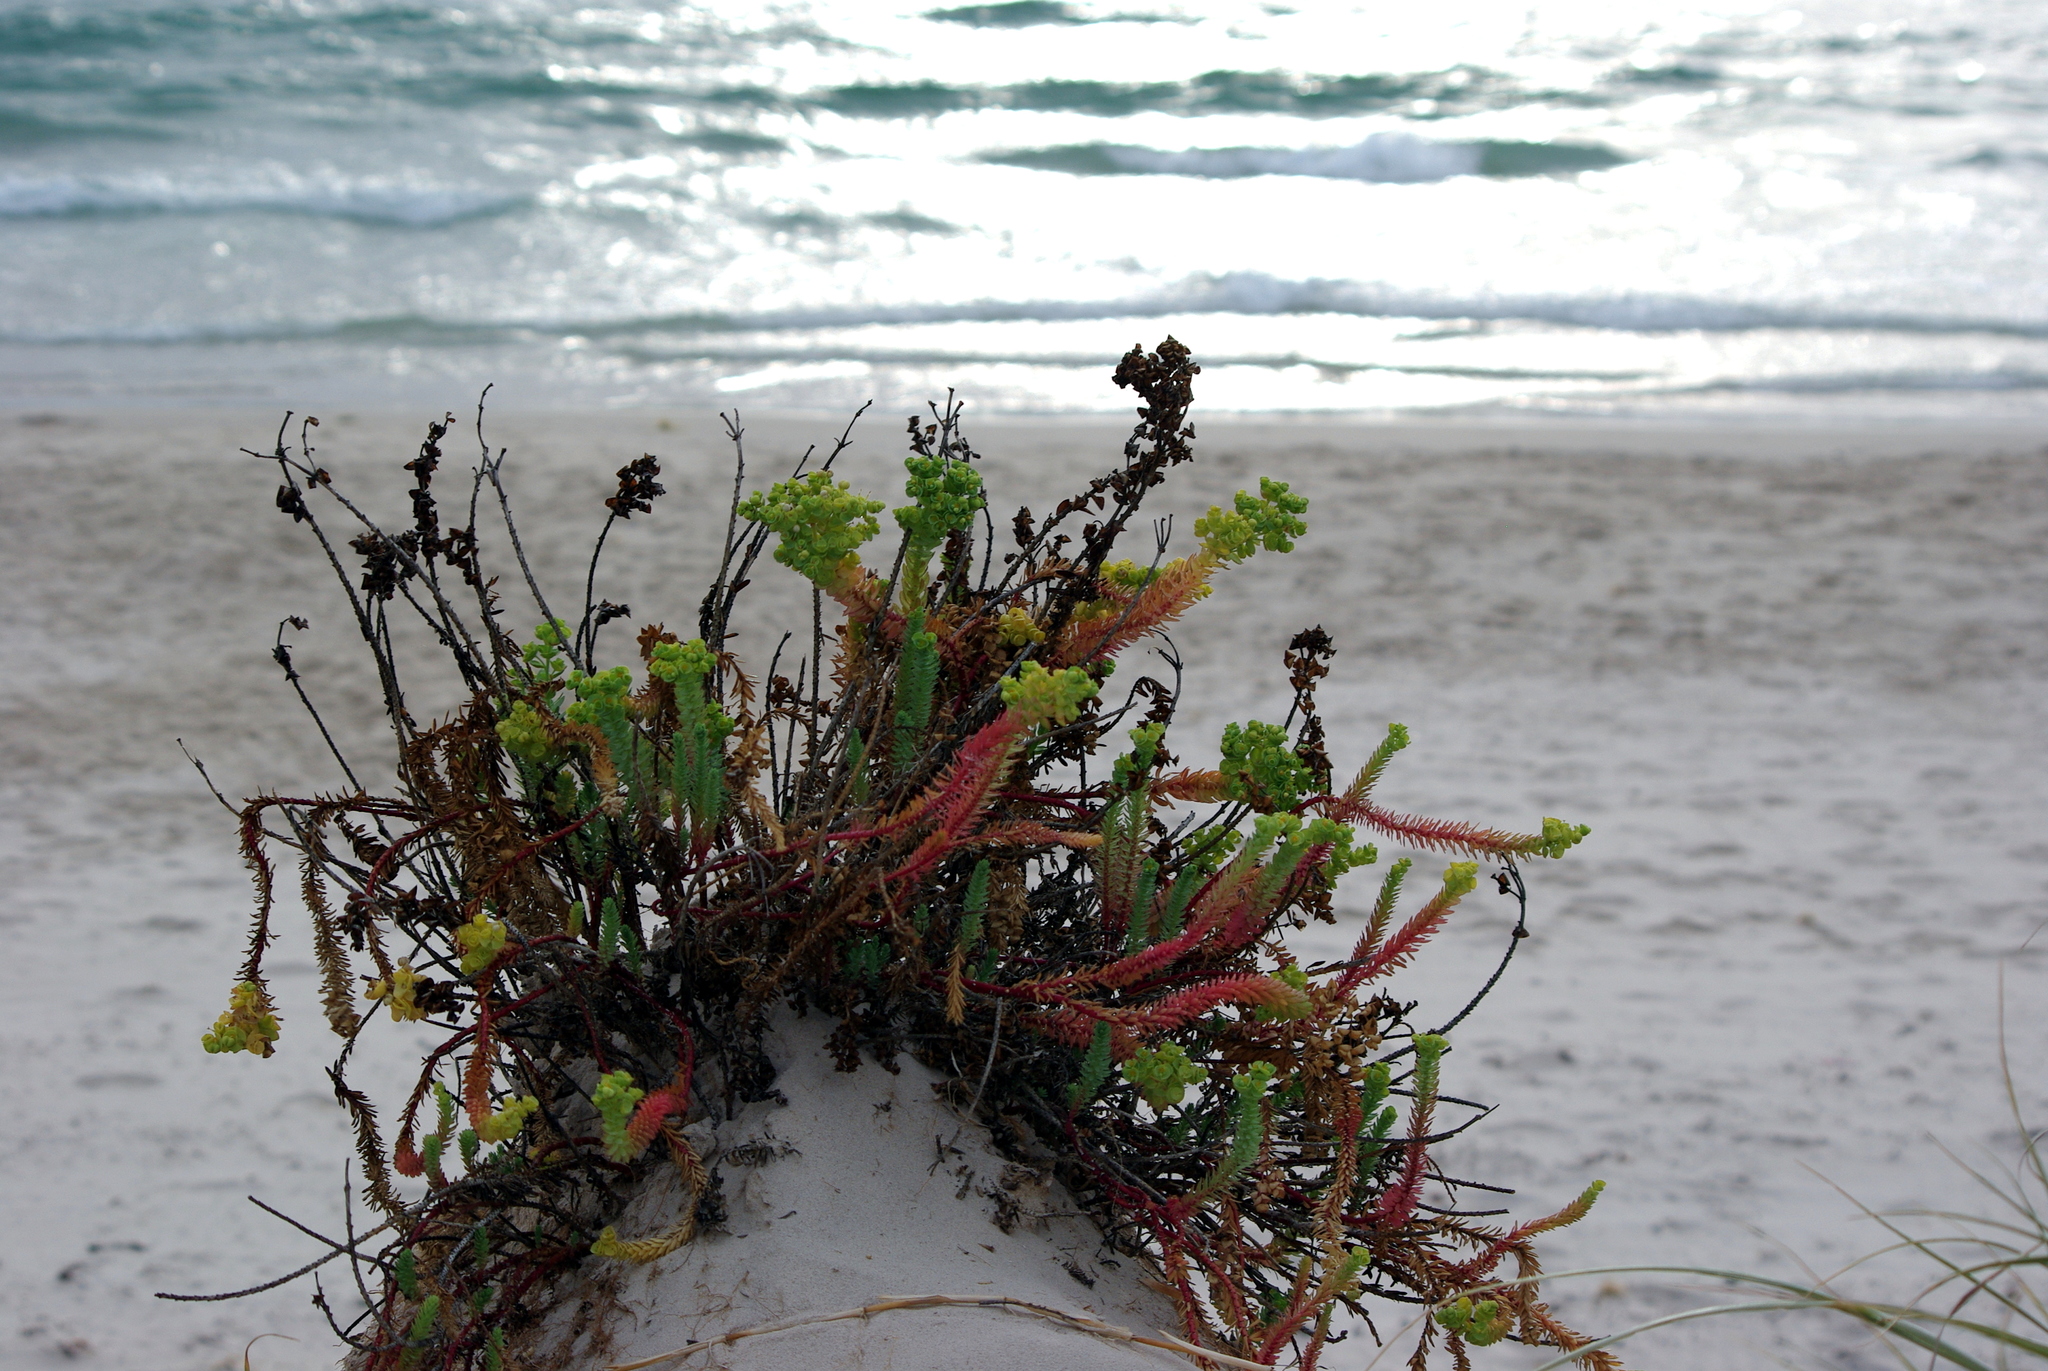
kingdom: Plantae
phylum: Tracheophyta
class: Magnoliopsida
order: Malpighiales
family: Euphorbiaceae
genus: Euphorbia
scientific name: Euphorbia paralias
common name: Sea spurge
